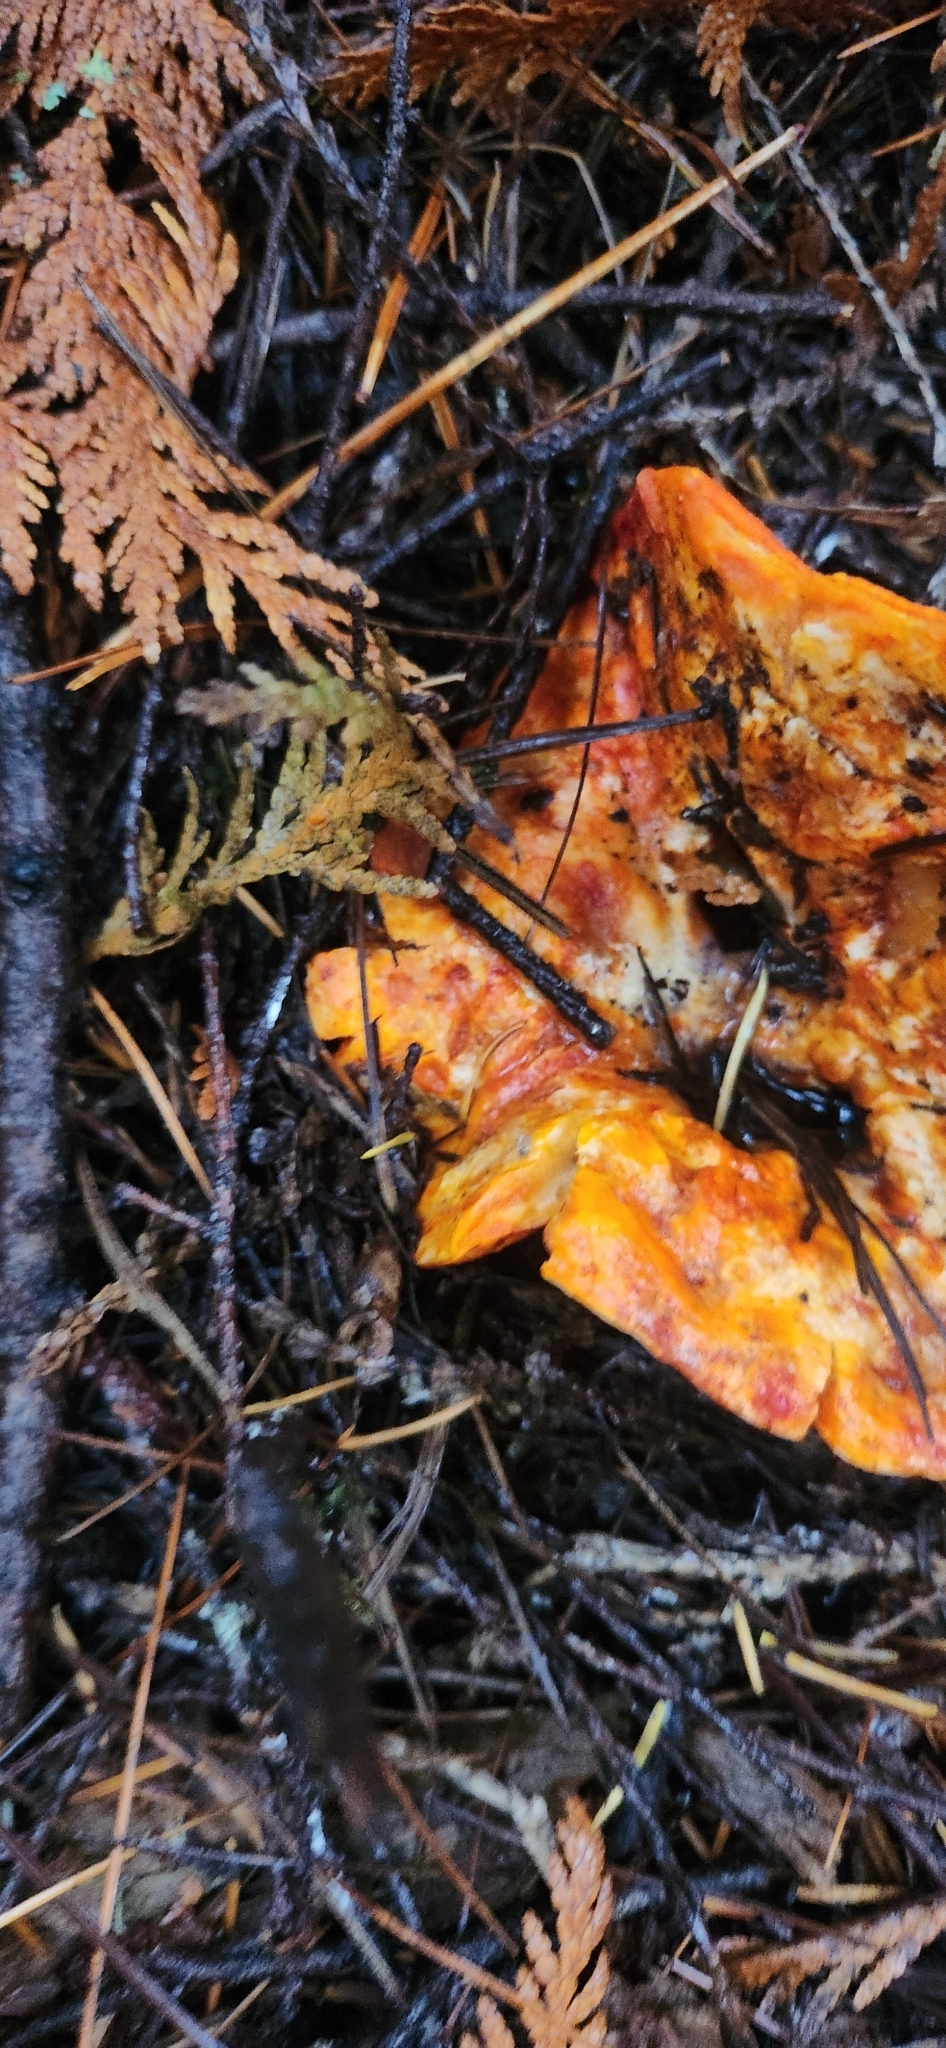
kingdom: Fungi
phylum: Ascomycota
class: Sordariomycetes
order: Hypocreales
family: Hypocreaceae
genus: Hypomyces
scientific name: Hypomyces lactifluorum
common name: Lobster mushroom
